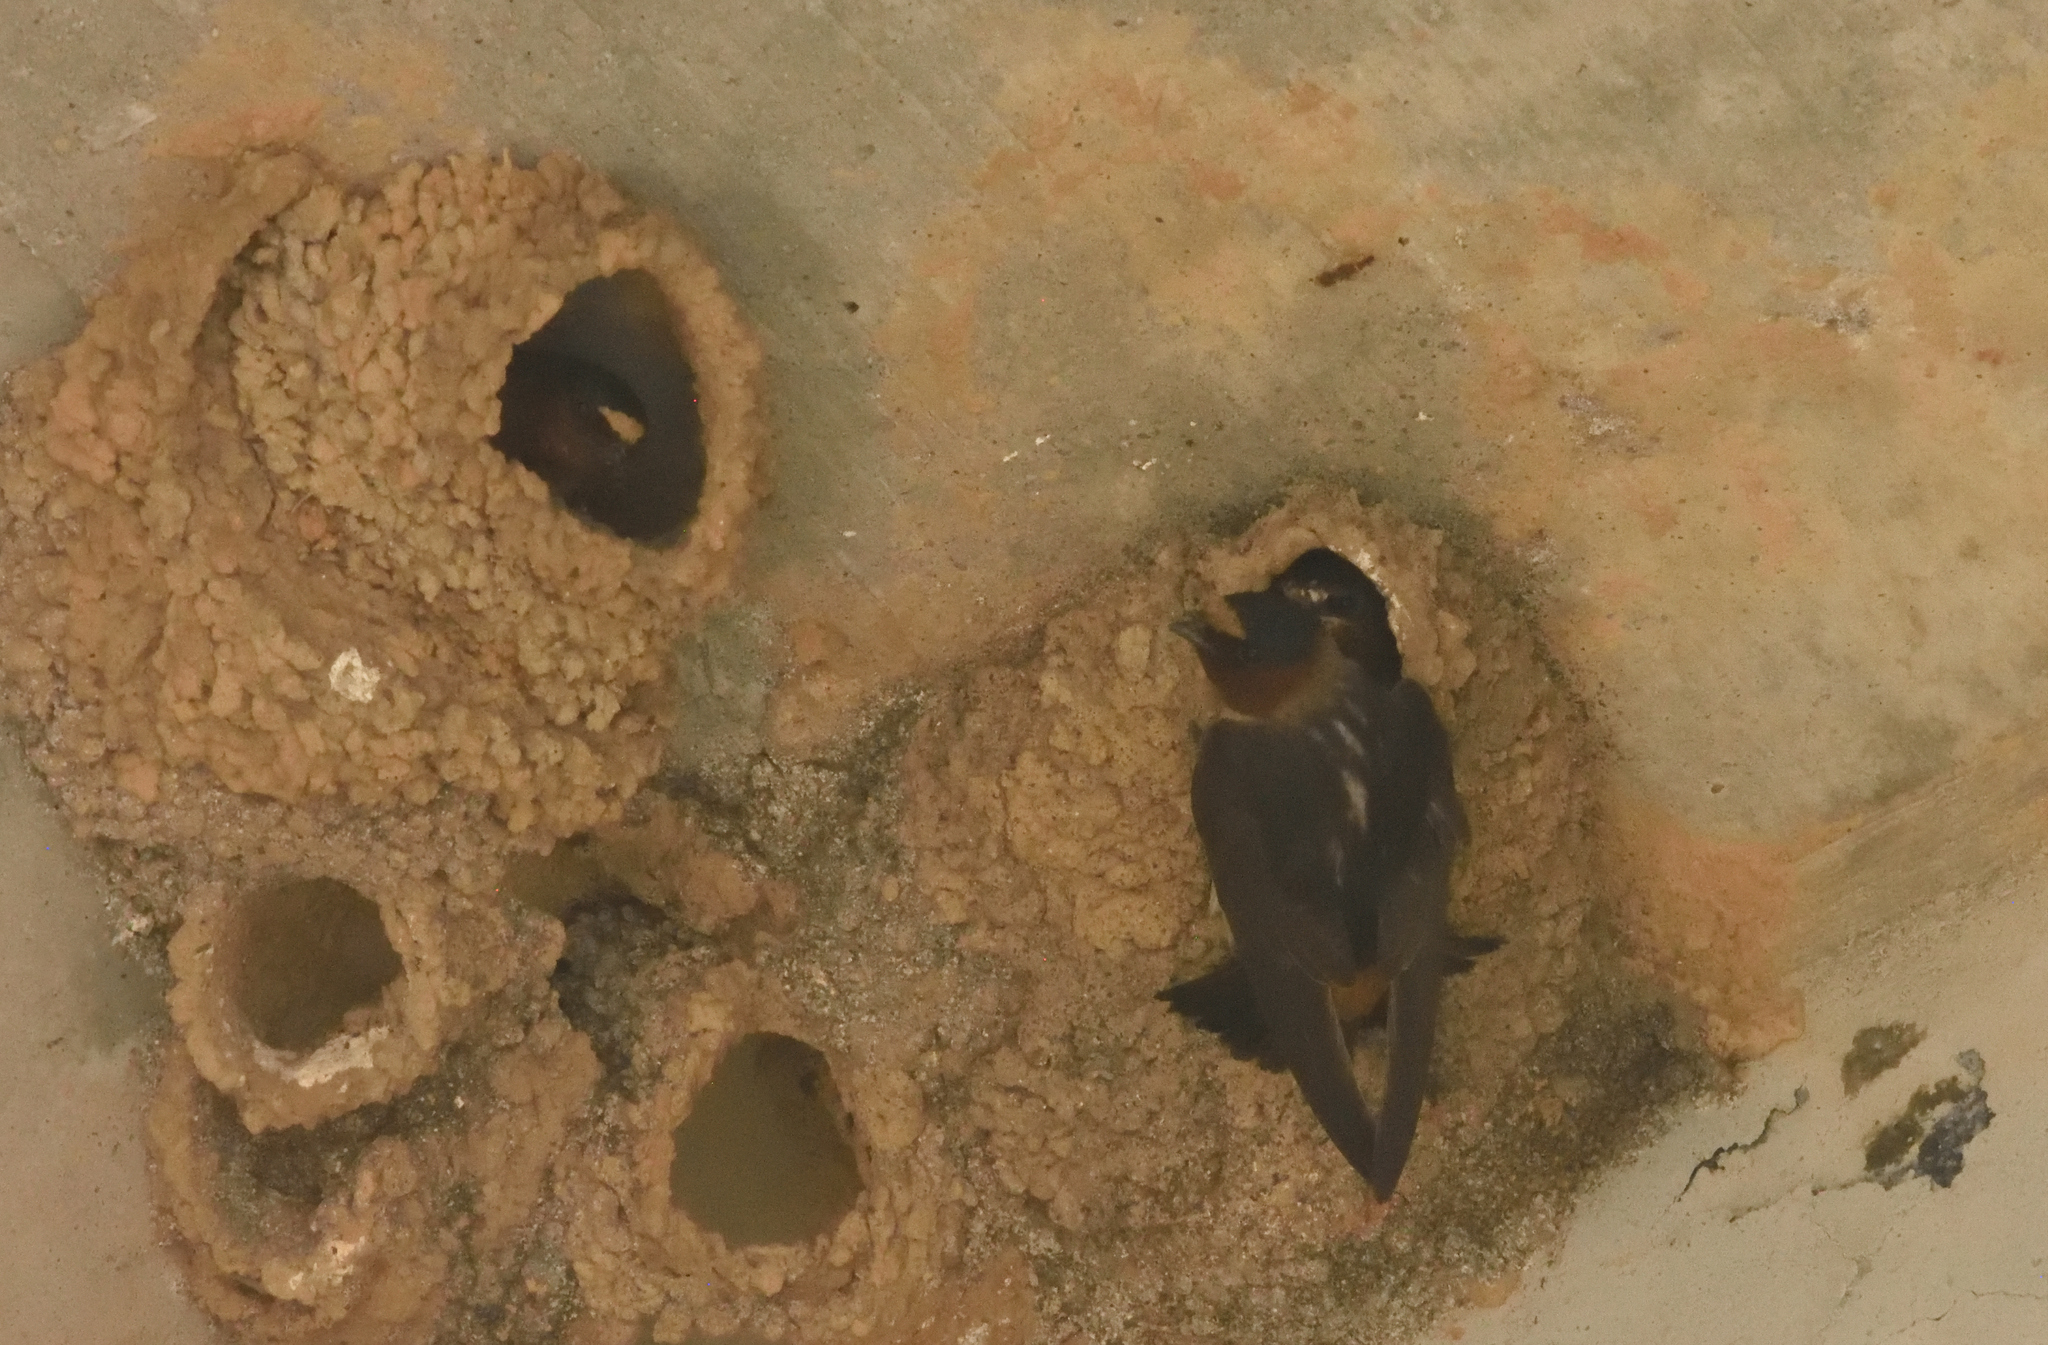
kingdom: Animalia
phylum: Chordata
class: Aves
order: Passeriformes
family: Hirundinidae
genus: Petrochelidon
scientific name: Petrochelidon pyrrhonota
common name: American cliff swallow
